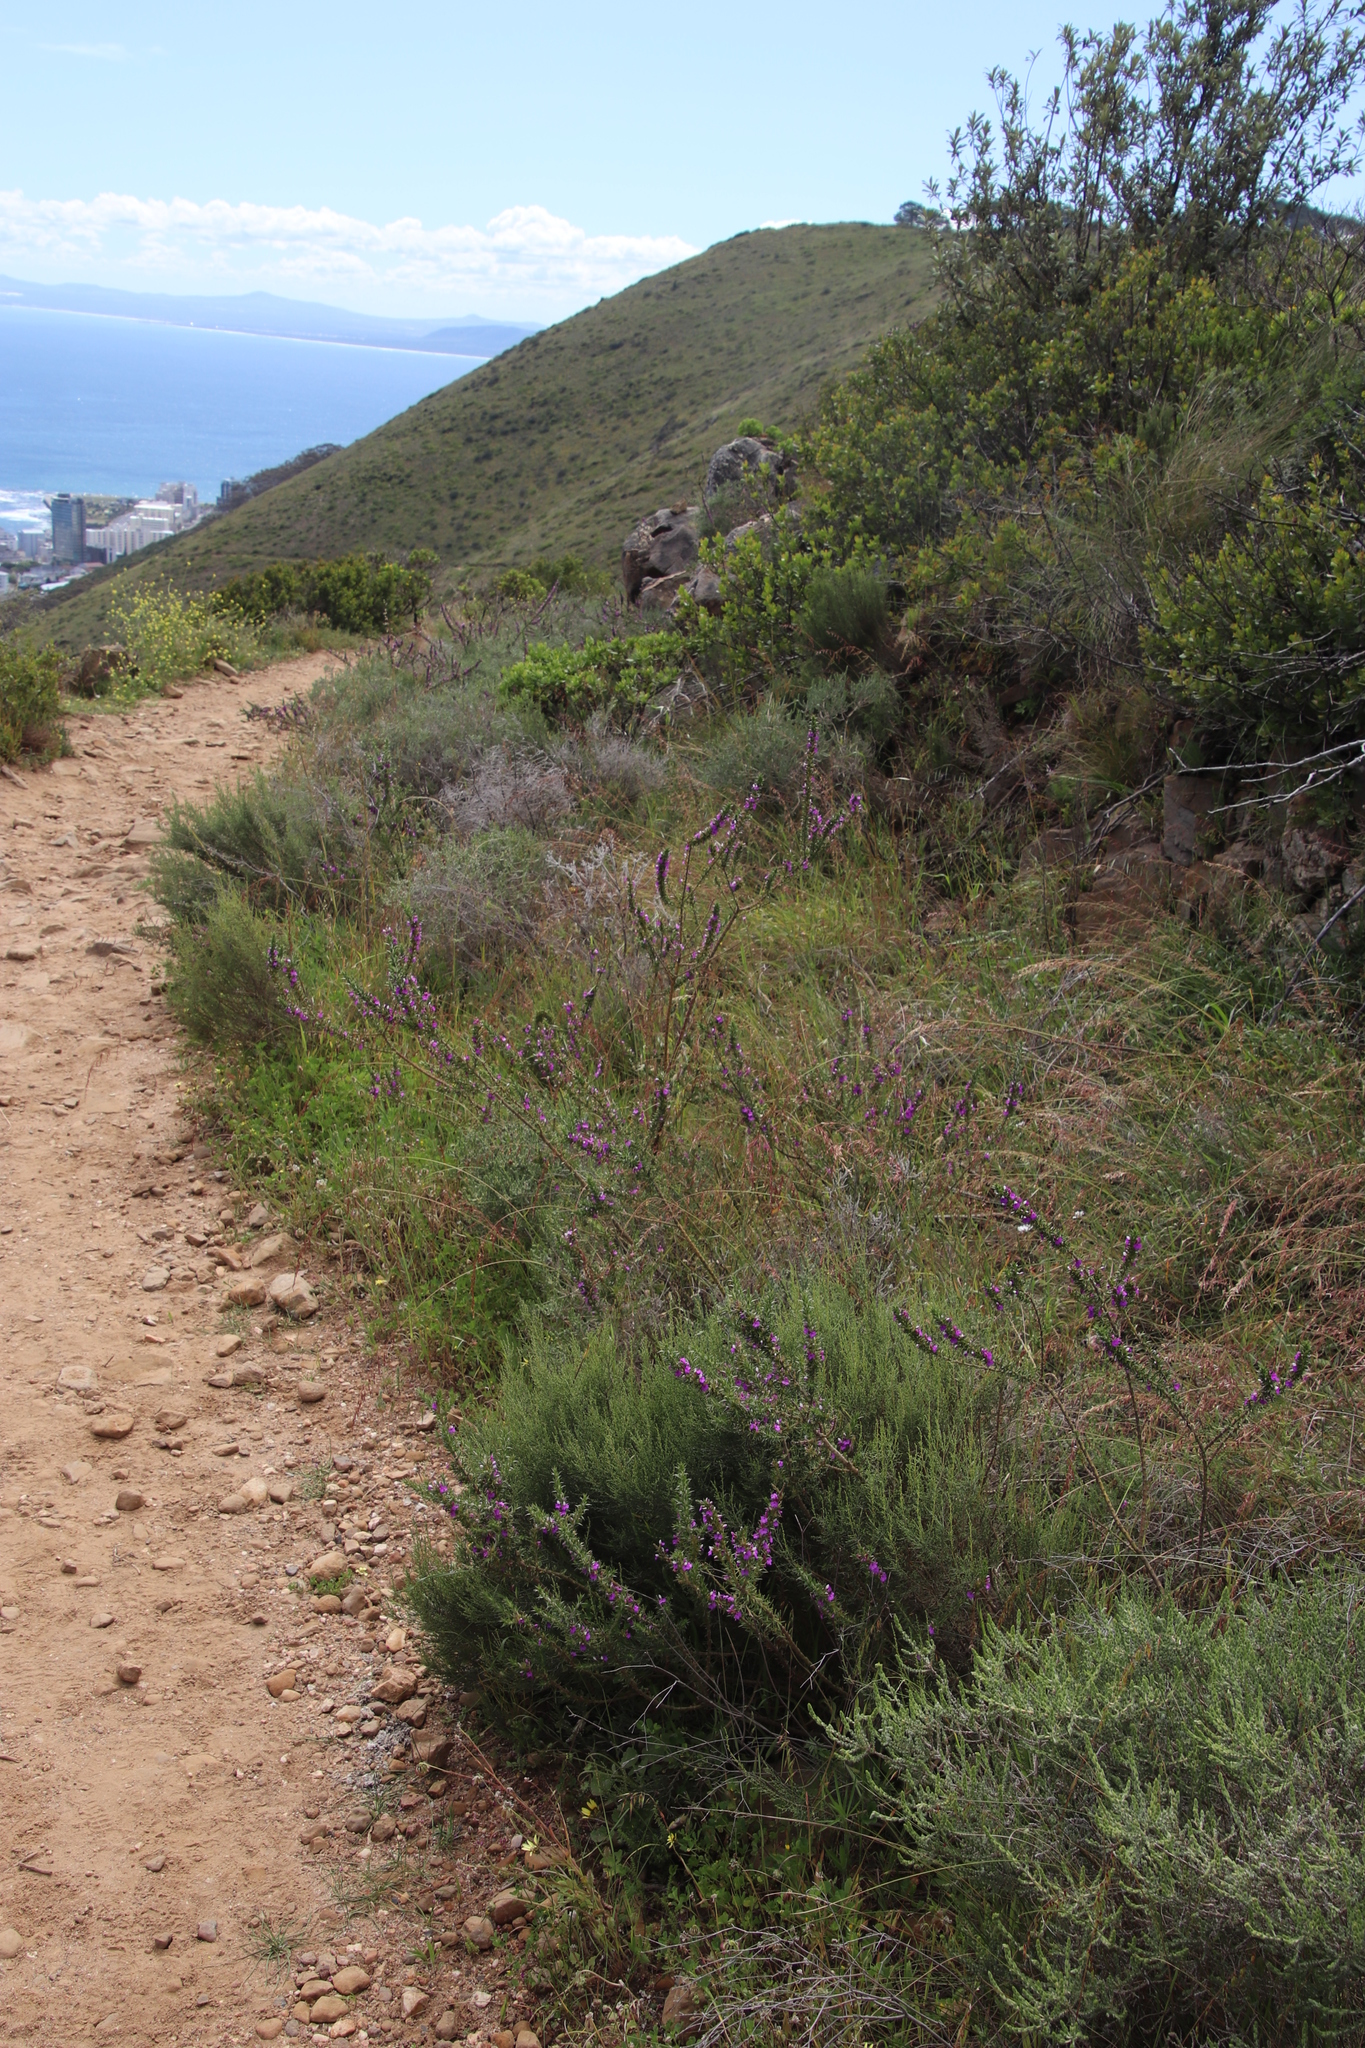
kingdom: Plantae
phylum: Tracheophyta
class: Magnoliopsida
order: Fabales
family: Polygalaceae
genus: Muraltia
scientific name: Muraltia heisteria
